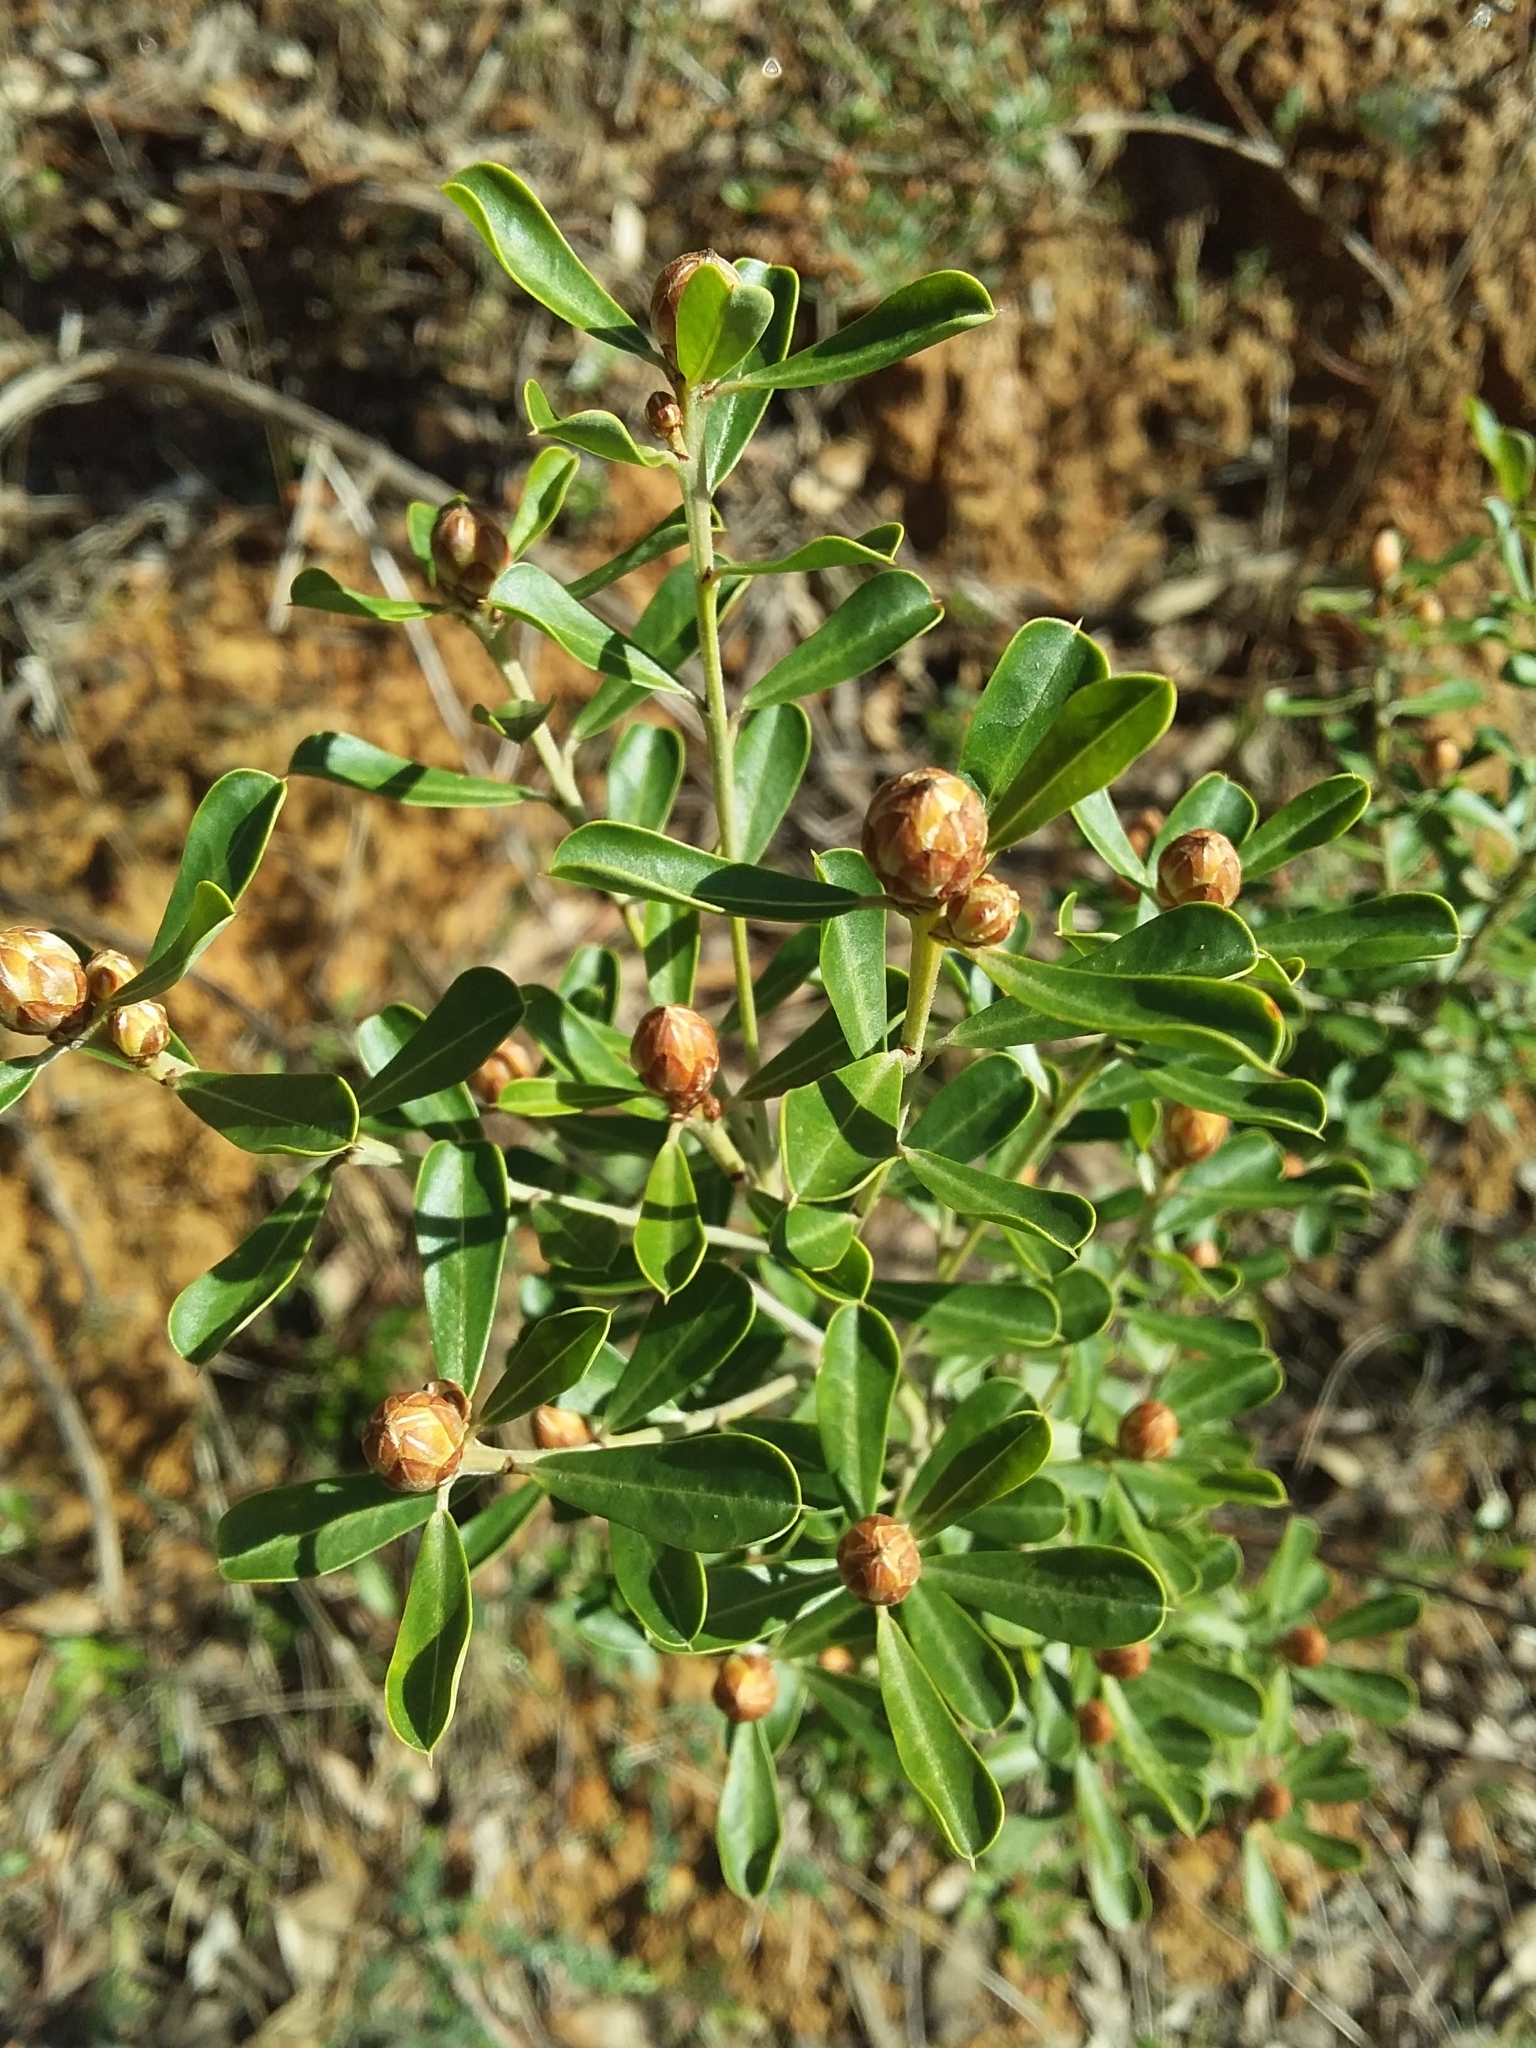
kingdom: Plantae
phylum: Tracheophyta
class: Magnoliopsida
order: Fabales
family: Fabaceae
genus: Pultenaea
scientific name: Pultenaea daphnoides
